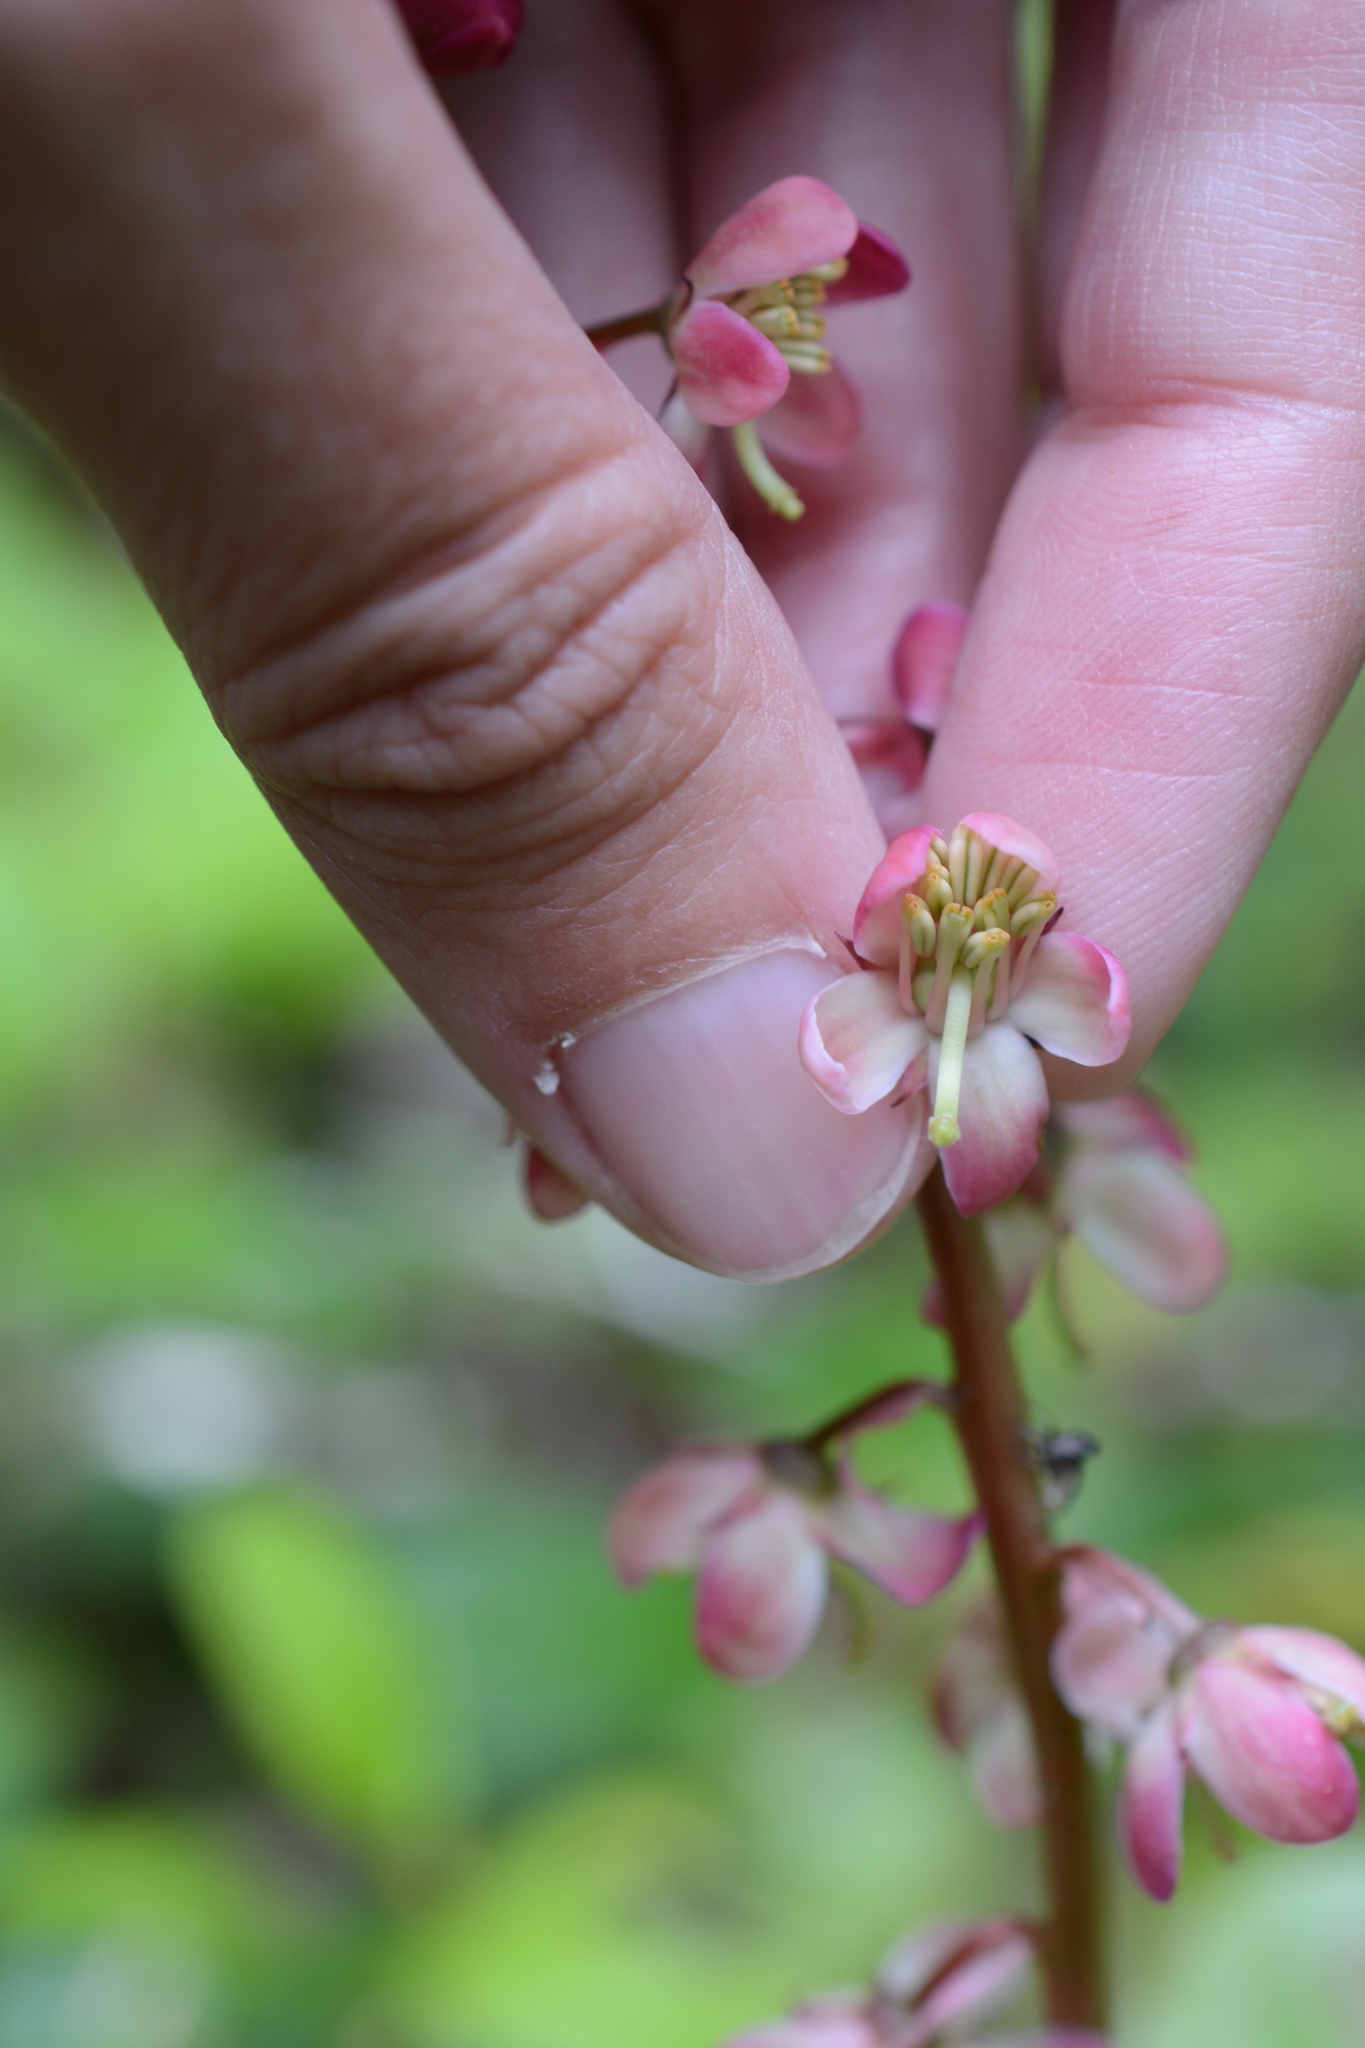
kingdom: Plantae
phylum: Tracheophyta
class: Magnoliopsida
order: Ericales
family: Ericaceae
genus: Pyrola
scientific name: Pyrola asarifolia
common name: Bog wintergreen
